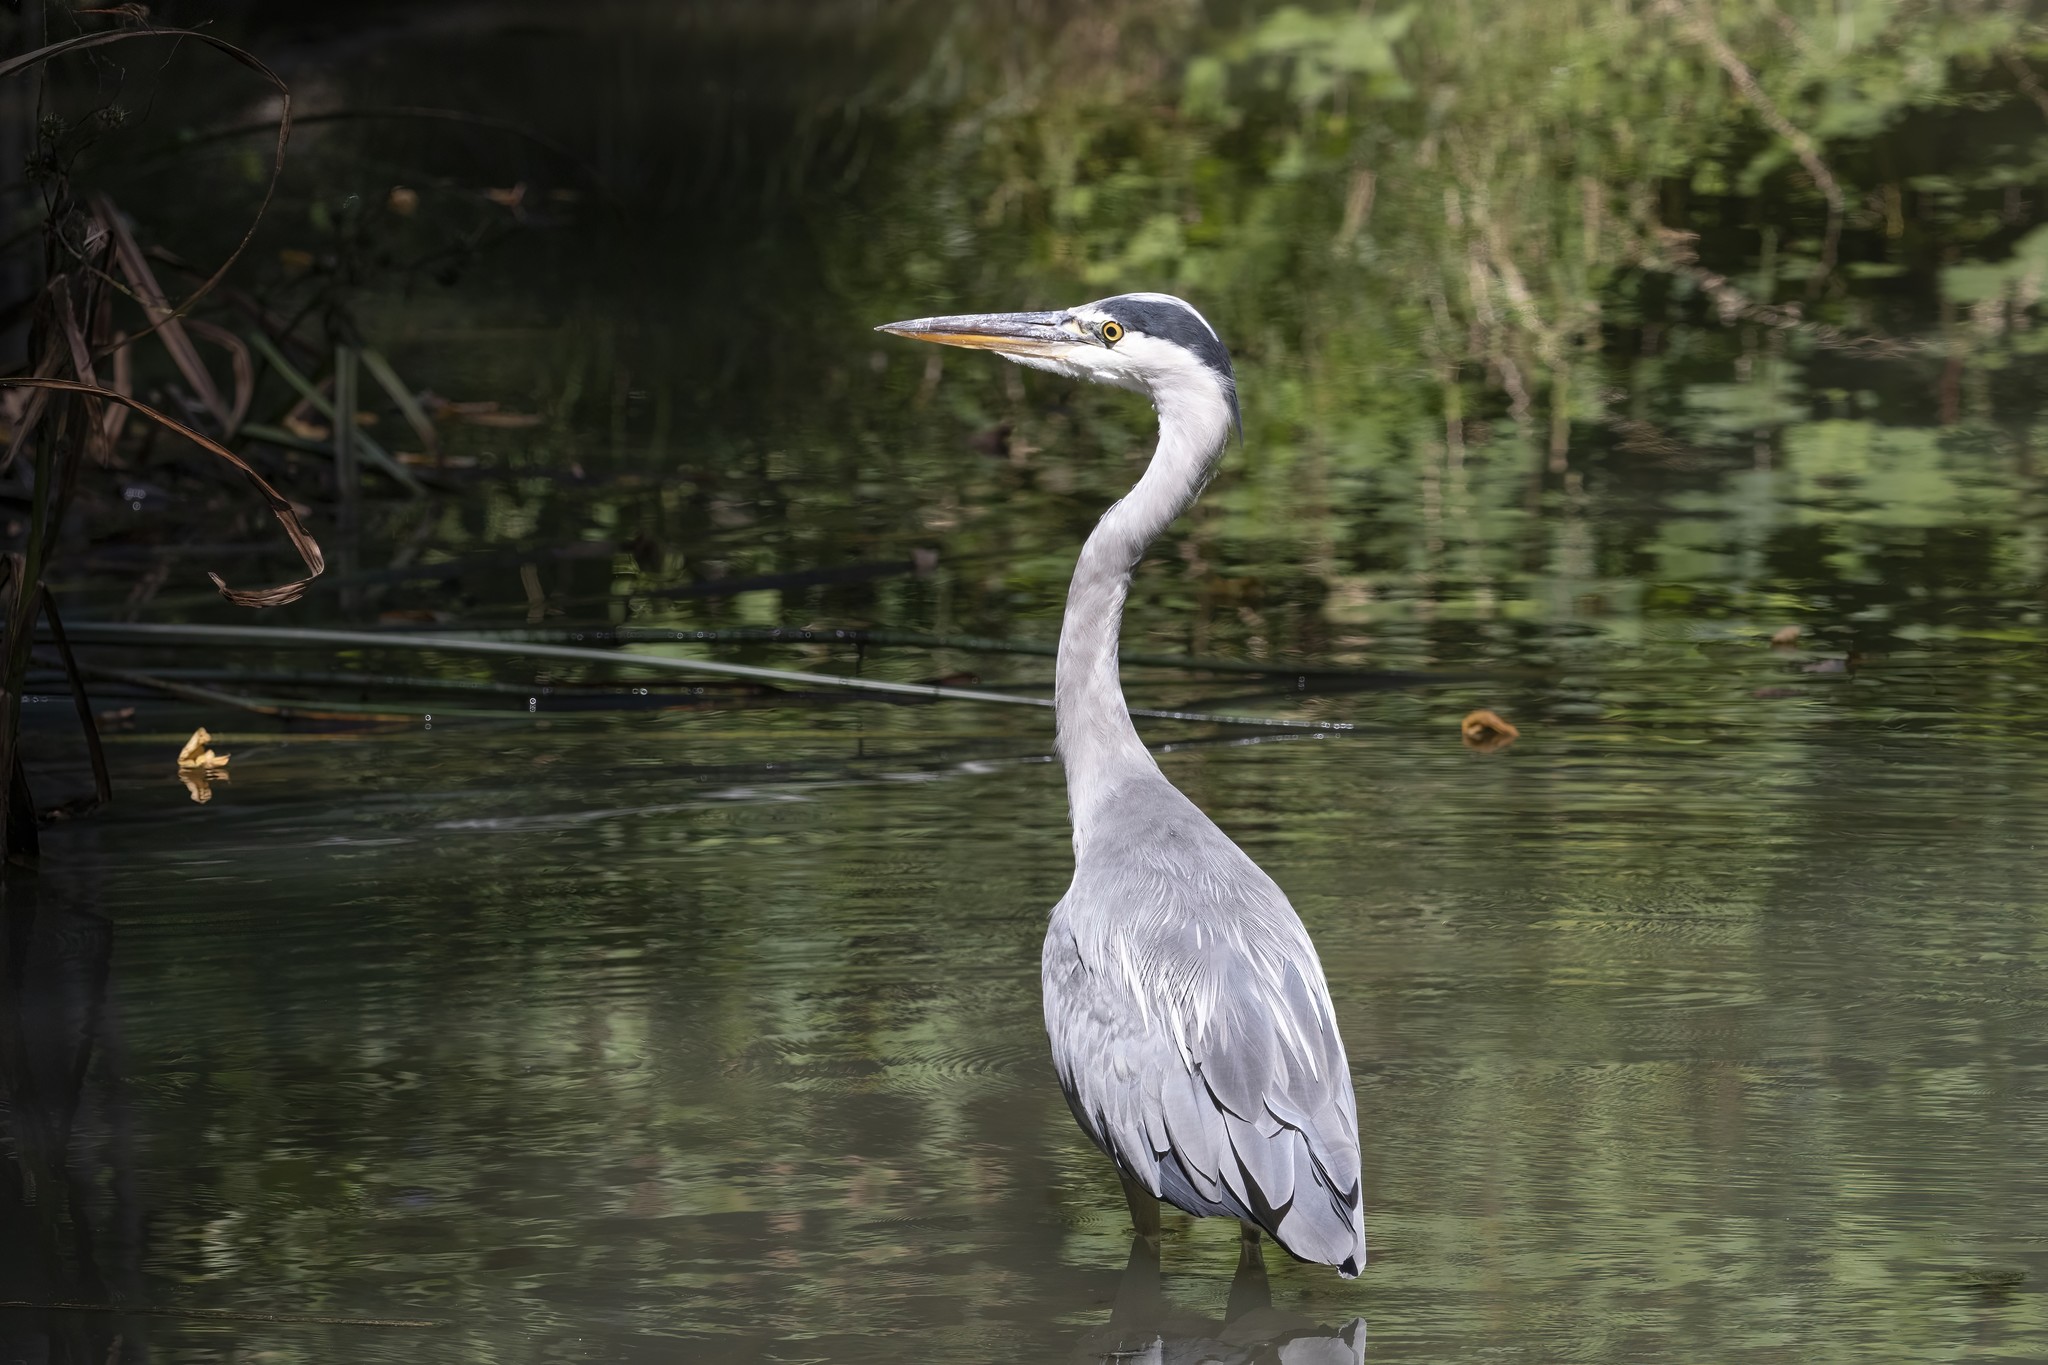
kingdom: Animalia
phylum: Chordata
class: Aves
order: Pelecaniformes
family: Ardeidae
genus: Ardea
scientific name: Ardea cinerea
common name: Grey heron
